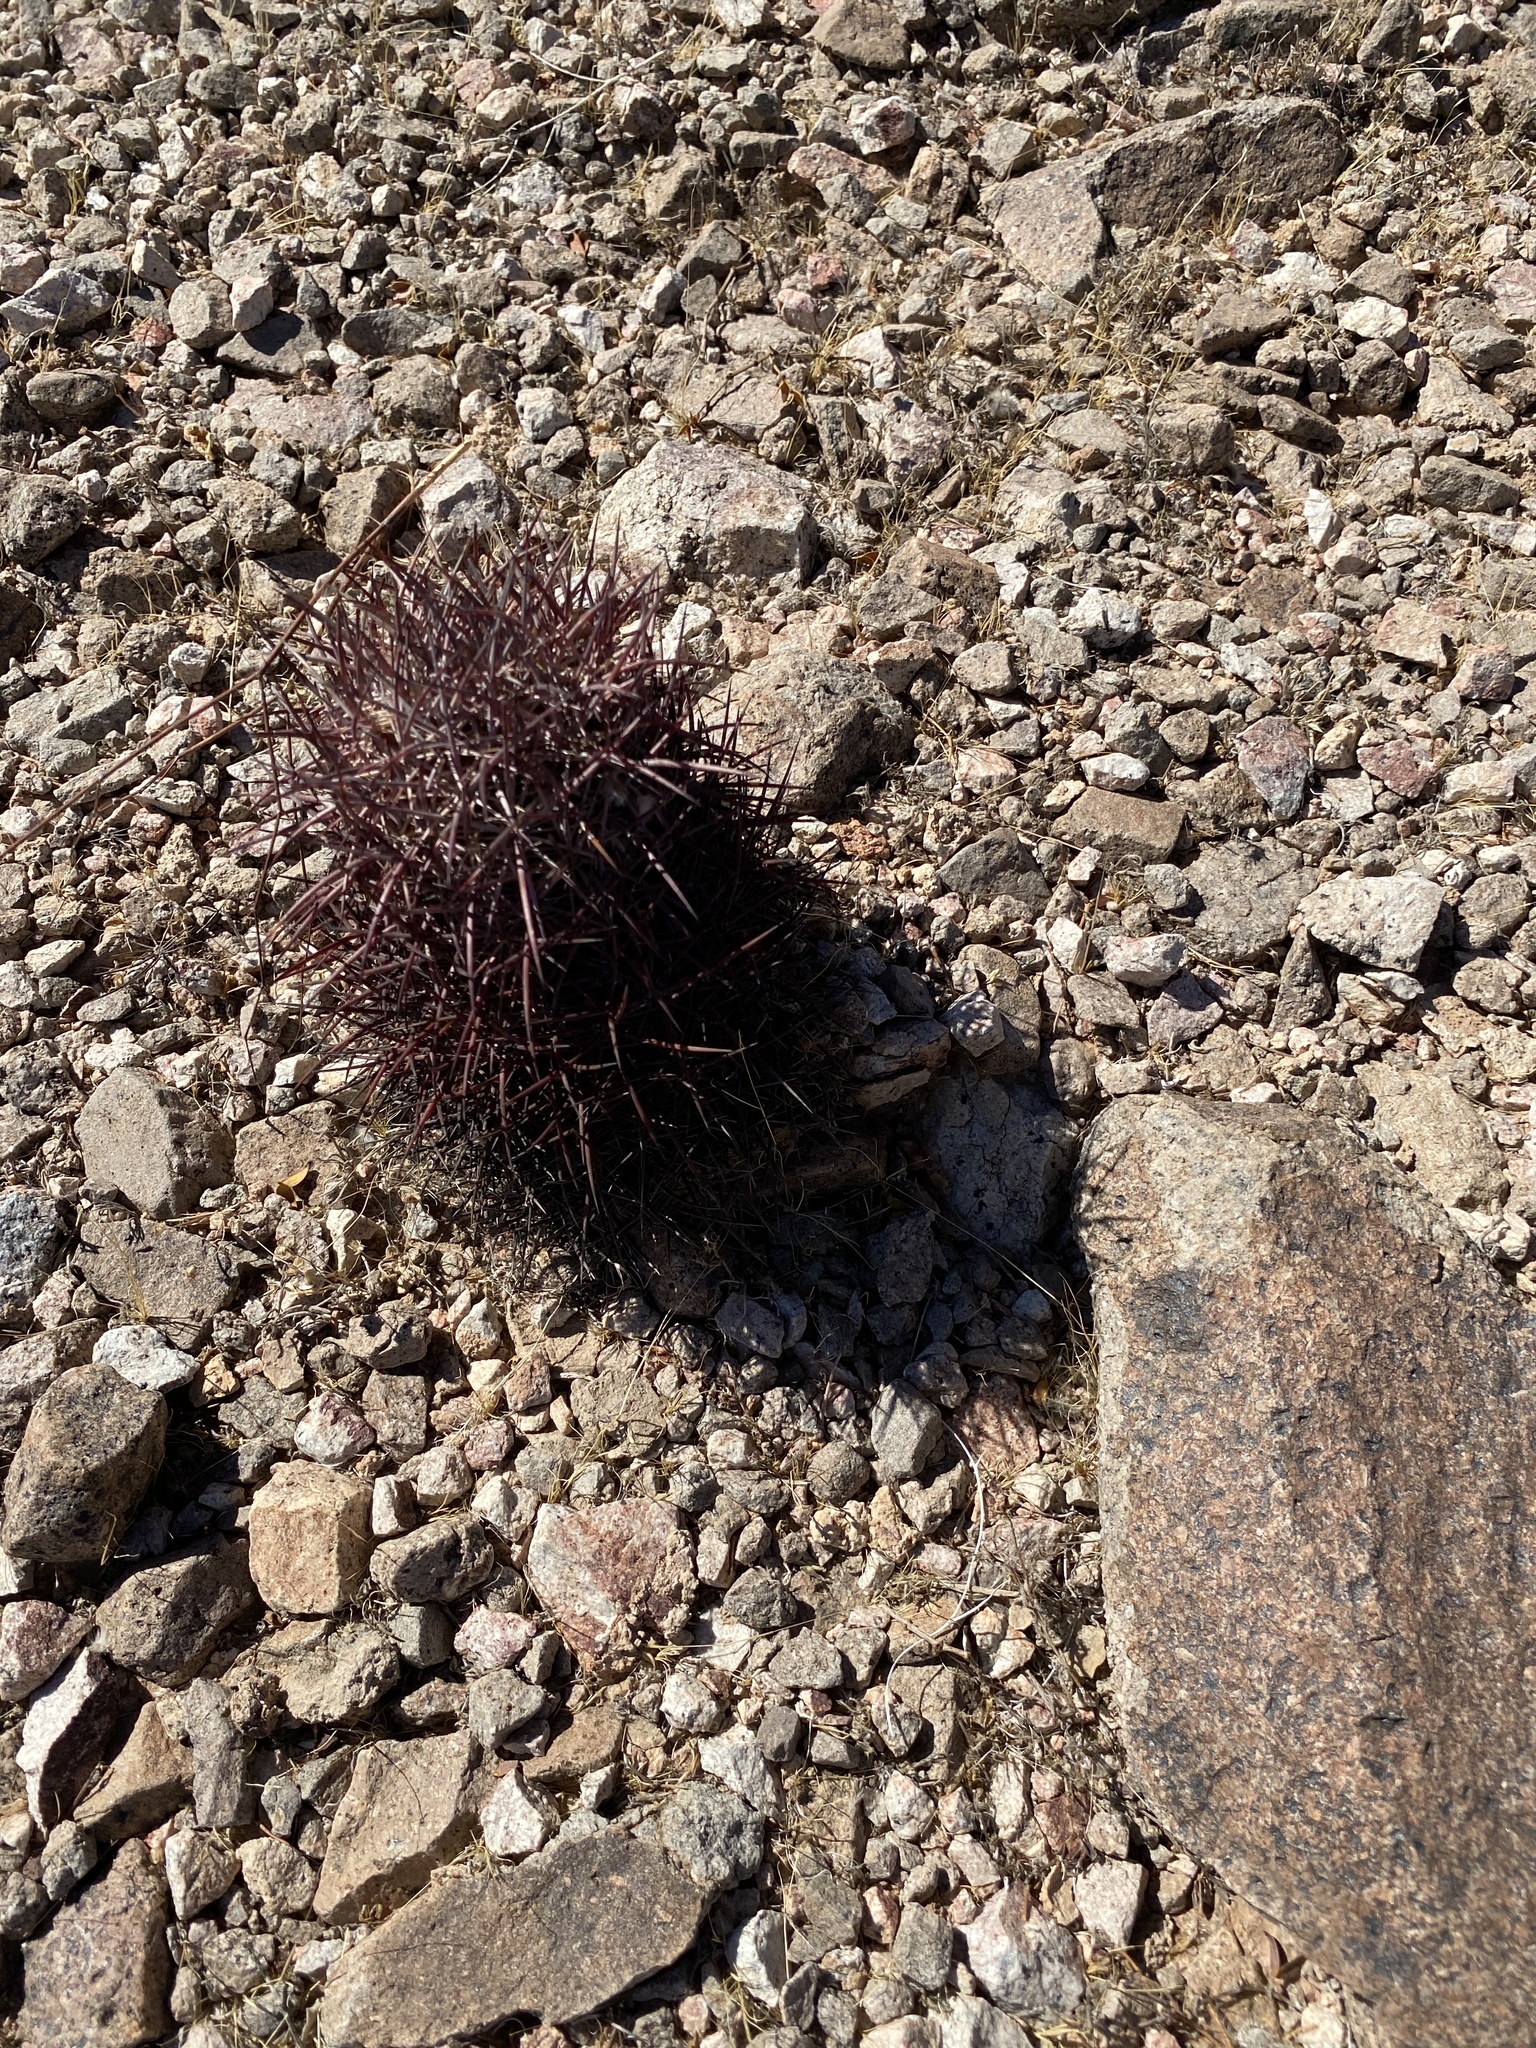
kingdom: Plantae
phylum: Tracheophyta
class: Magnoliopsida
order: Caryophyllales
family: Cactaceae
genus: Sclerocactus
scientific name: Sclerocactus johnsonii
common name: Eight-spine fishhook cactus
